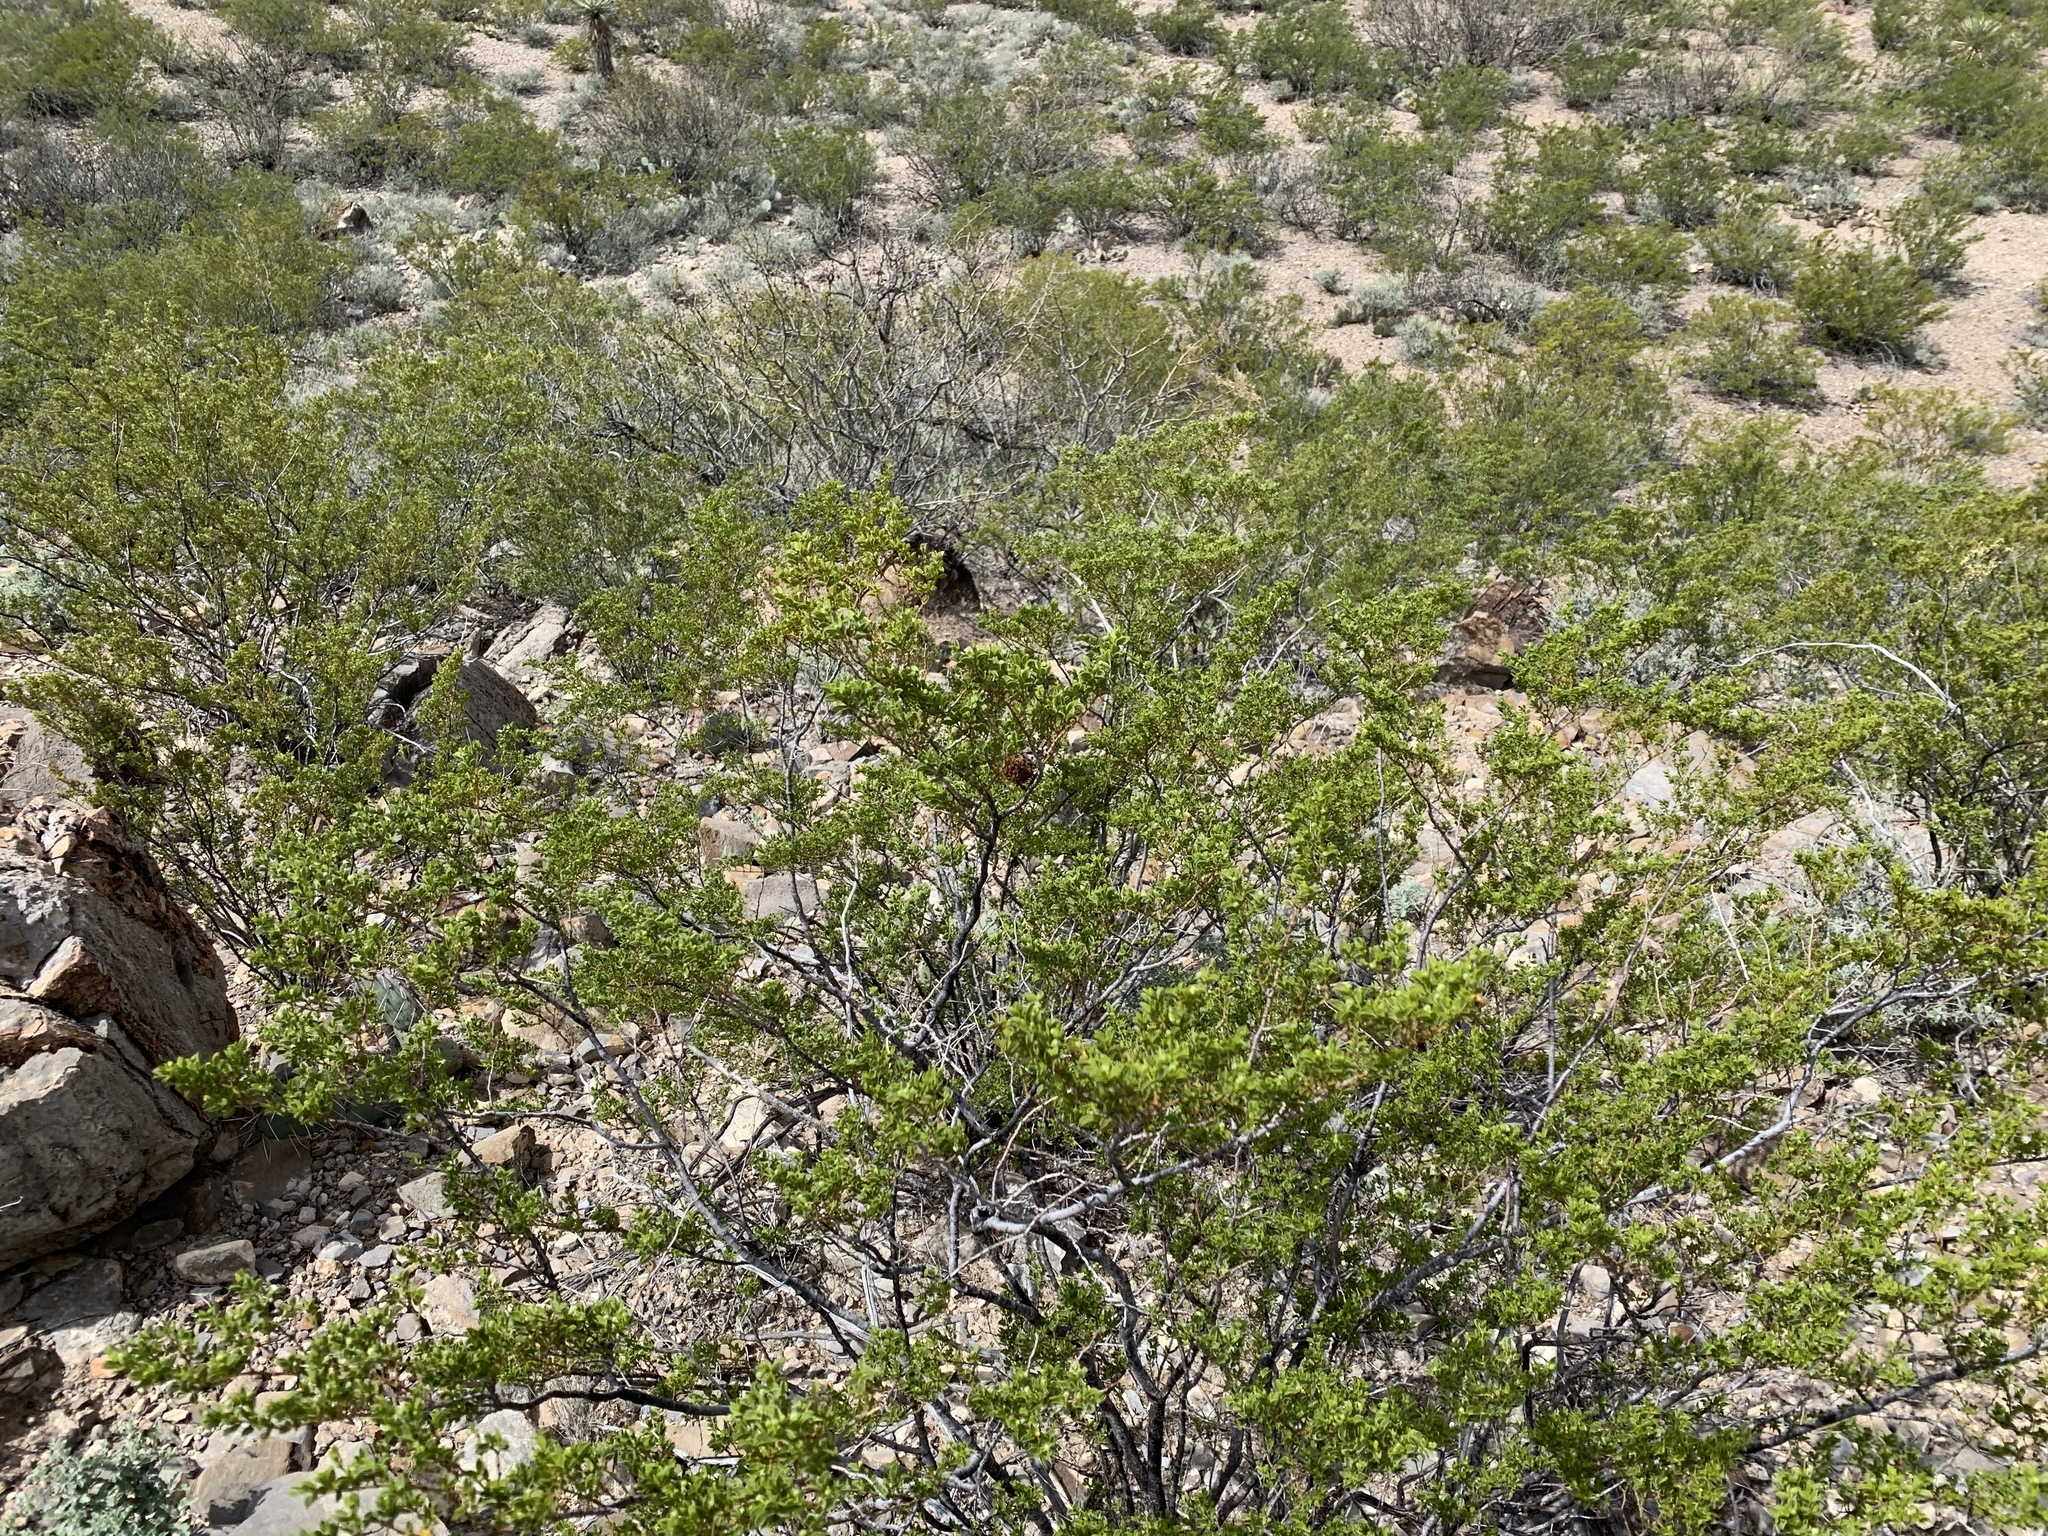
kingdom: Plantae
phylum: Tracheophyta
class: Magnoliopsida
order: Zygophyllales
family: Zygophyllaceae
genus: Larrea
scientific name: Larrea tridentata
